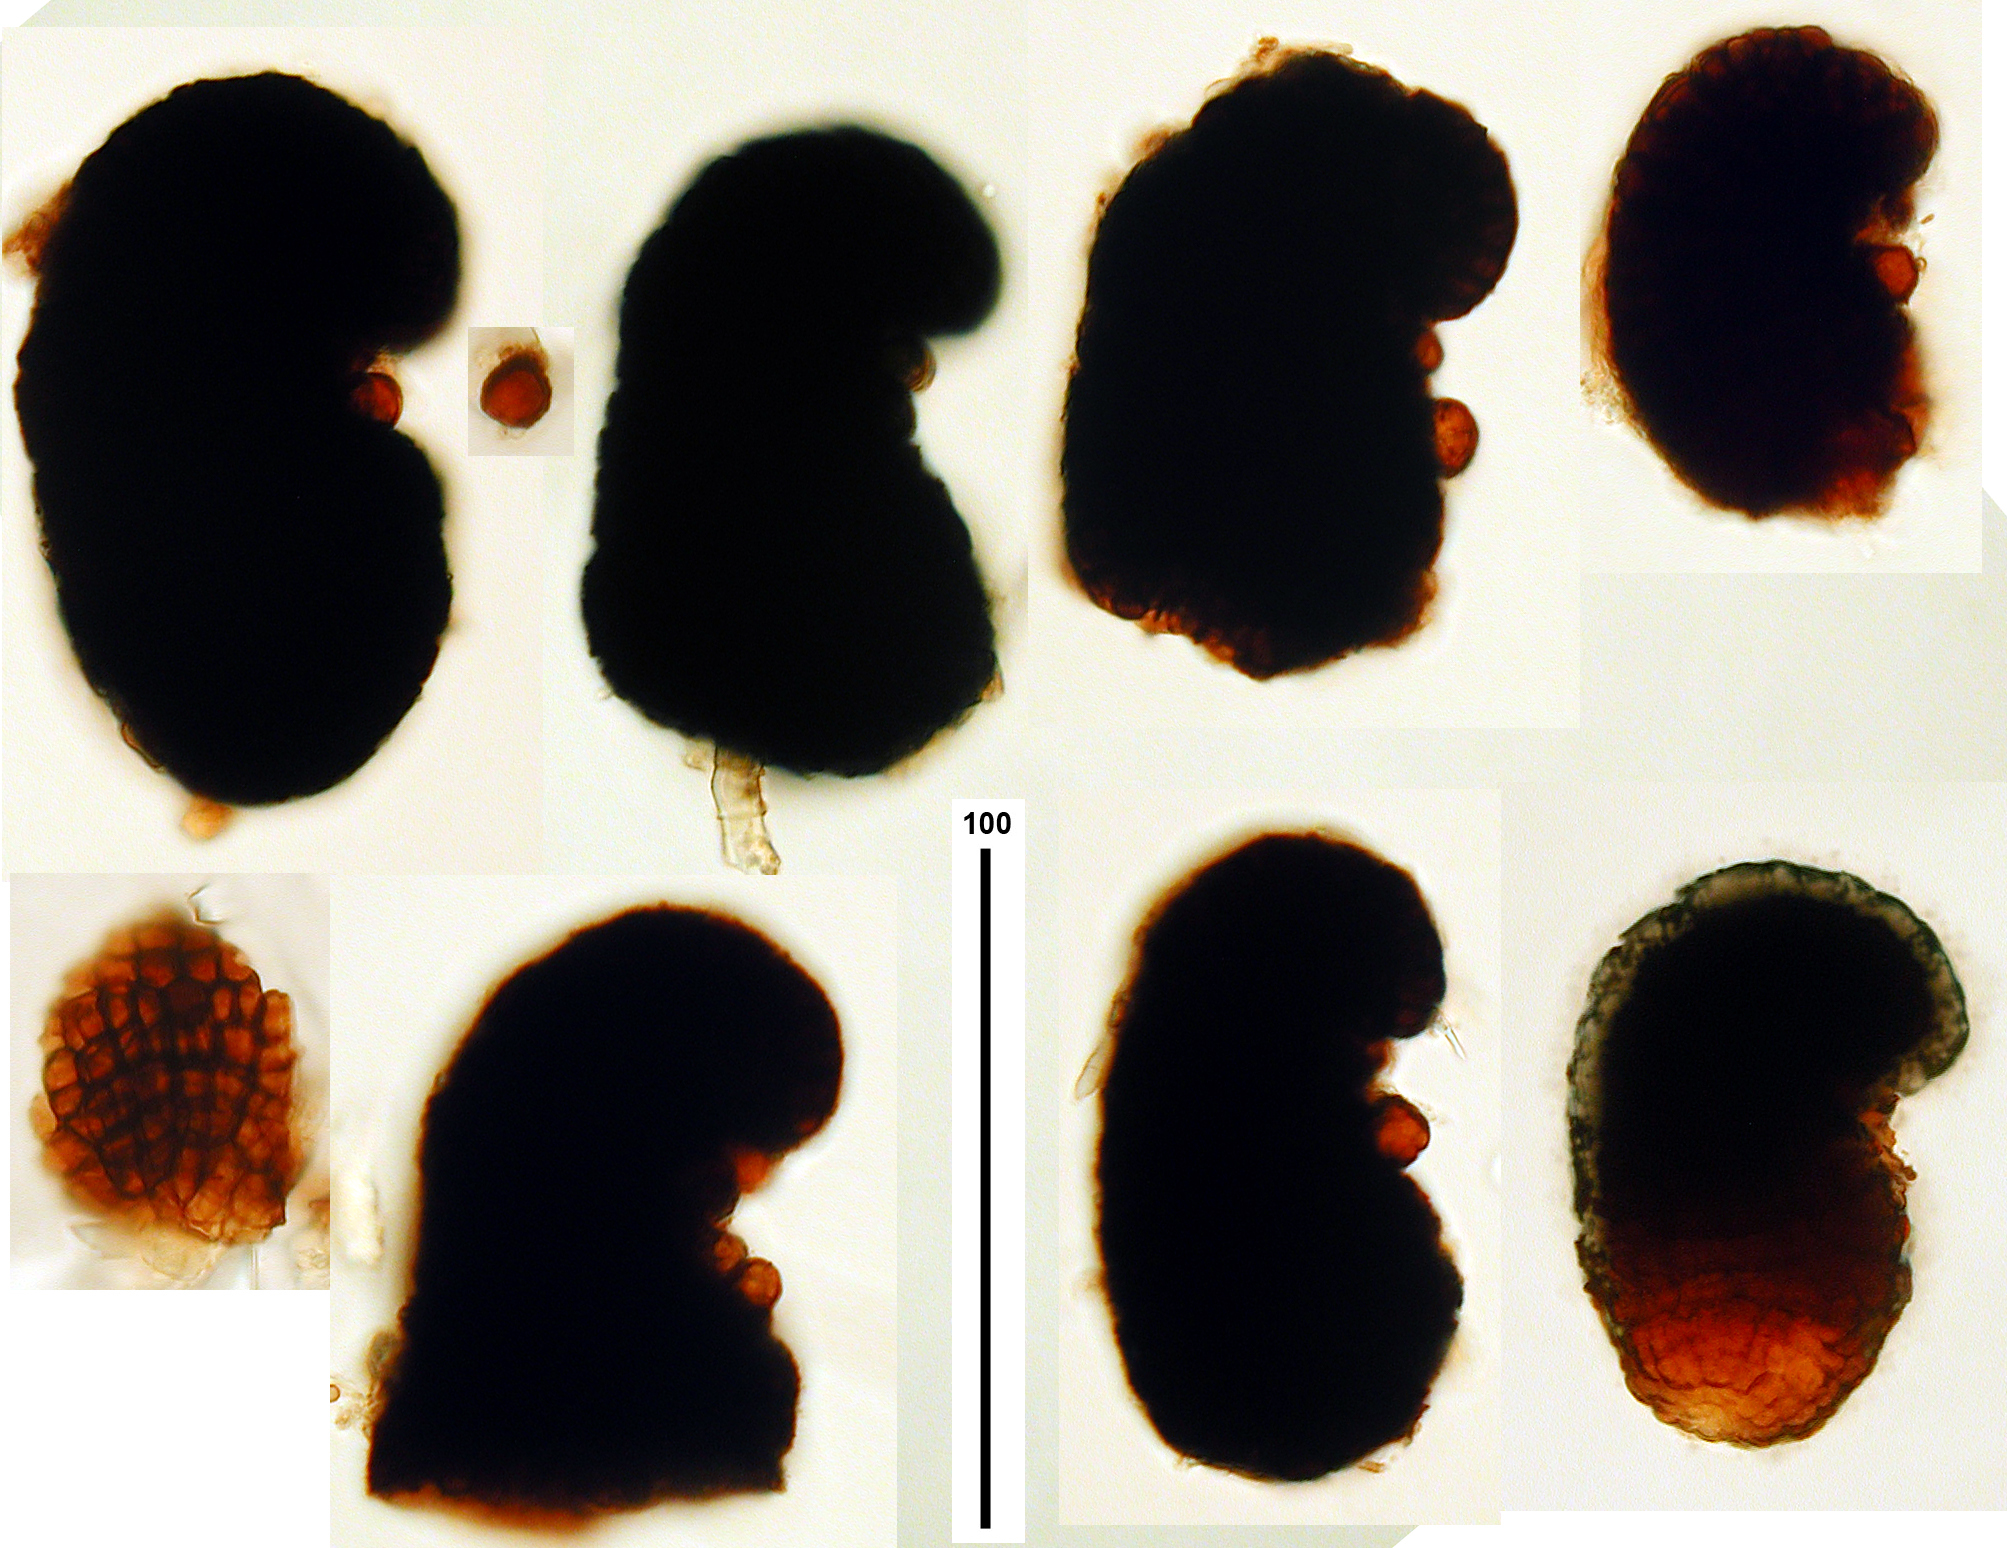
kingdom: Fungi
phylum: Ascomycota
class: Dothideomycetes
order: Tubeufiales
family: Tubeufiaceae
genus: Xenosporium
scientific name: Xenosporium mirabile
